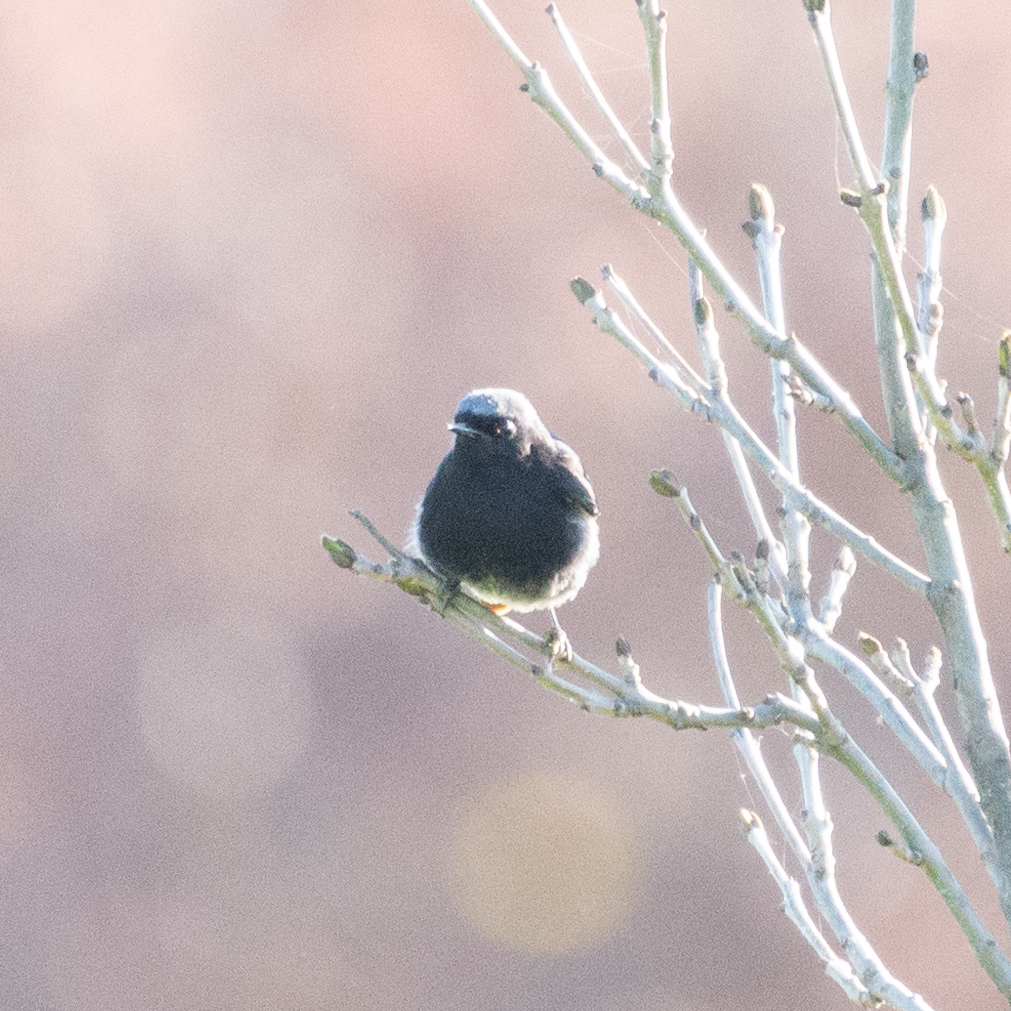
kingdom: Animalia
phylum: Chordata
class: Aves
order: Passeriformes
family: Muscicapidae
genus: Phoenicurus
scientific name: Phoenicurus ochruros
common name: Black redstart
